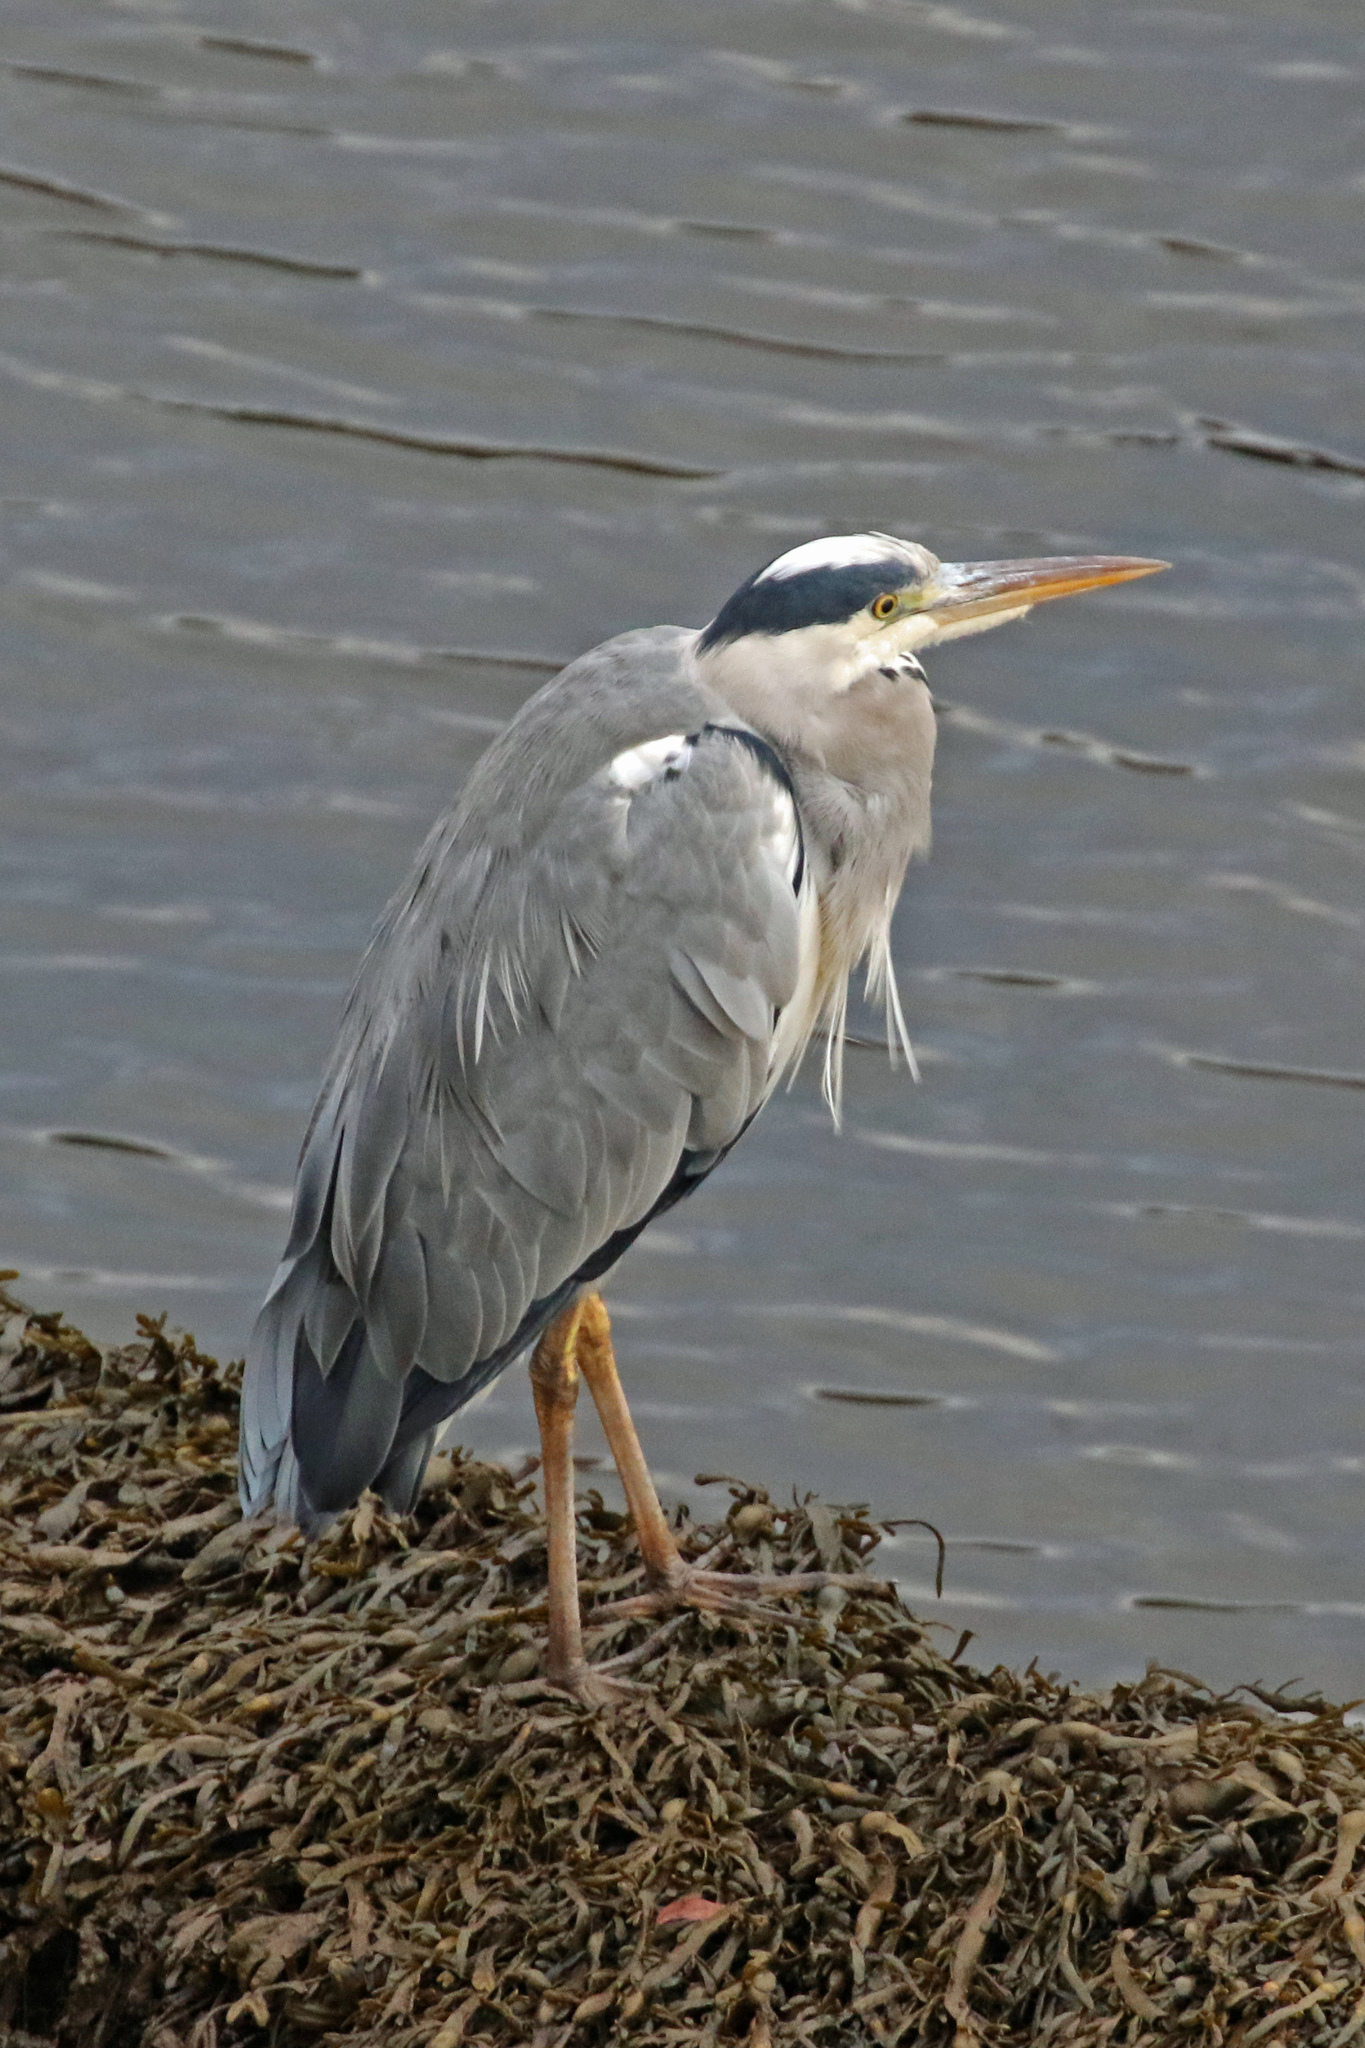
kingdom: Animalia
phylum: Chordata
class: Aves
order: Pelecaniformes
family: Ardeidae
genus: Ardea
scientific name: Ardea cinerea
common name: Grey heron
